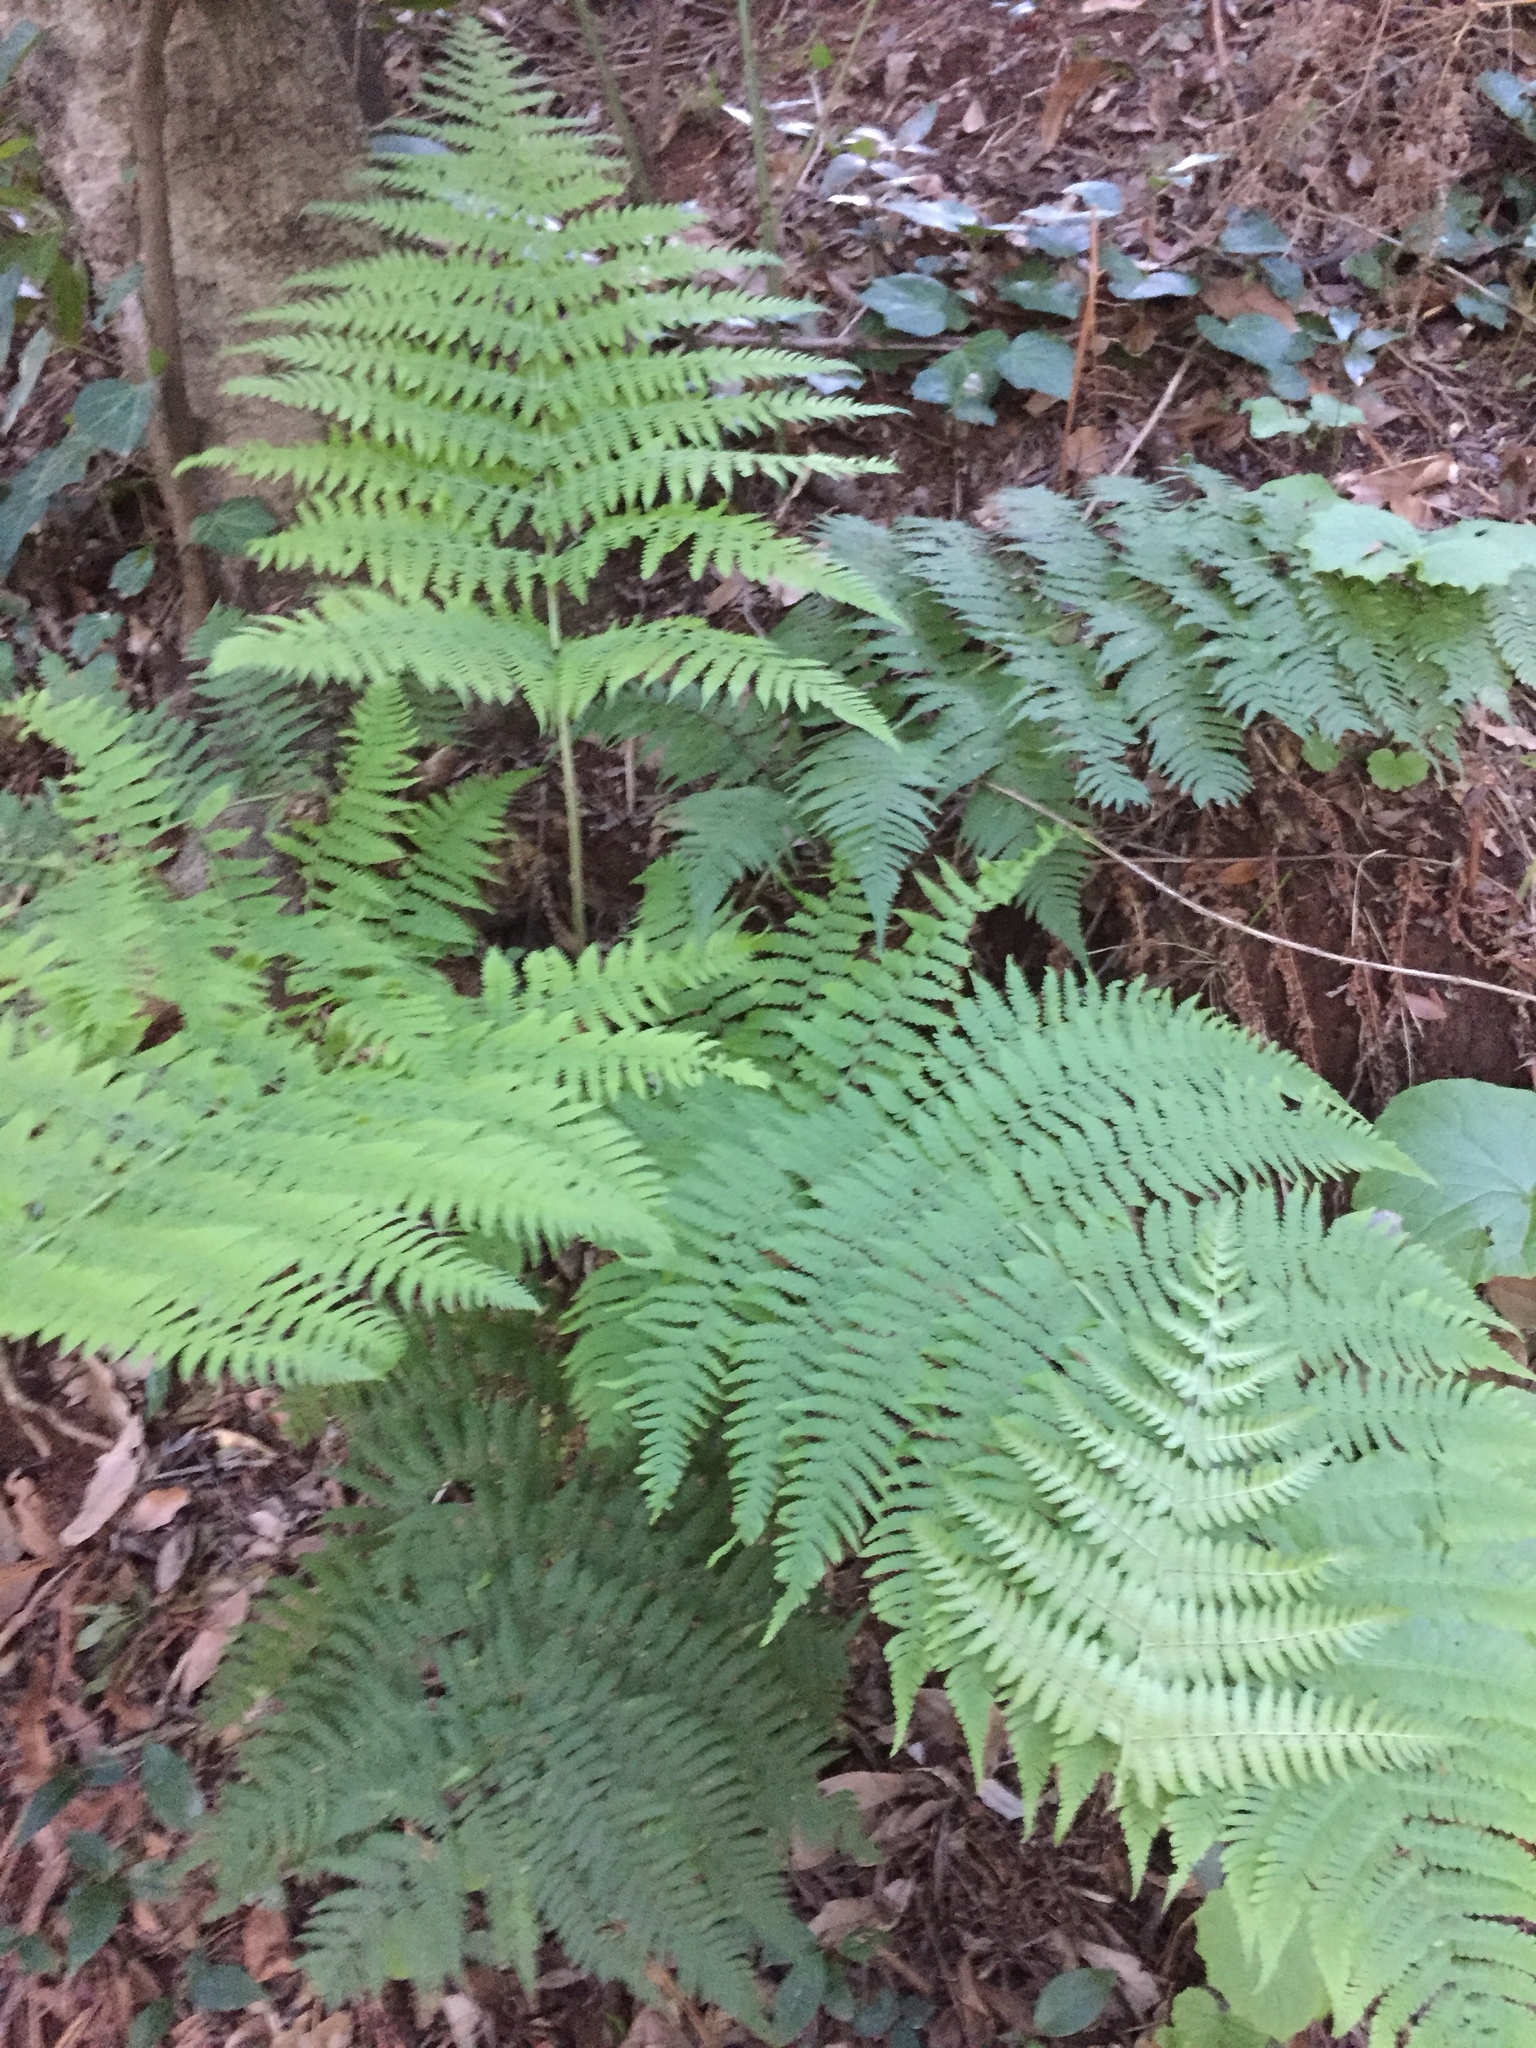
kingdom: Plantae
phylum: Tracheophyta
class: Polypodiopsida
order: Polypodiales
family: Dryopteridaceae
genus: Dryopteris
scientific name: Dryopteris oligodonta
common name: Canarian male-fern
